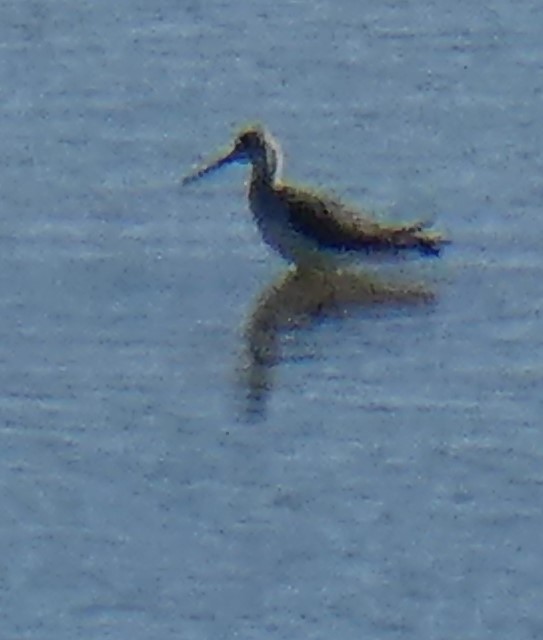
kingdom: Animalia
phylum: Chordata
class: Aves
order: Charadriiformes
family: Scolopacidae
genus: Tringa
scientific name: Tringa nebularia
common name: Common greenshank
